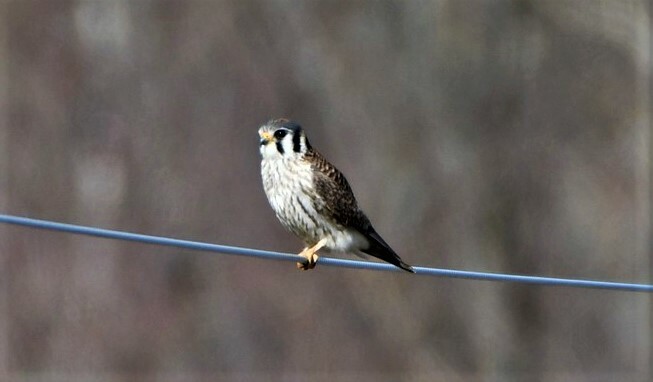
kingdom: Animalia
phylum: Chordata
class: Aves
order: Falconiformes
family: Falconidae
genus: Falco
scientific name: Falco sparverius
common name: American kestrel
